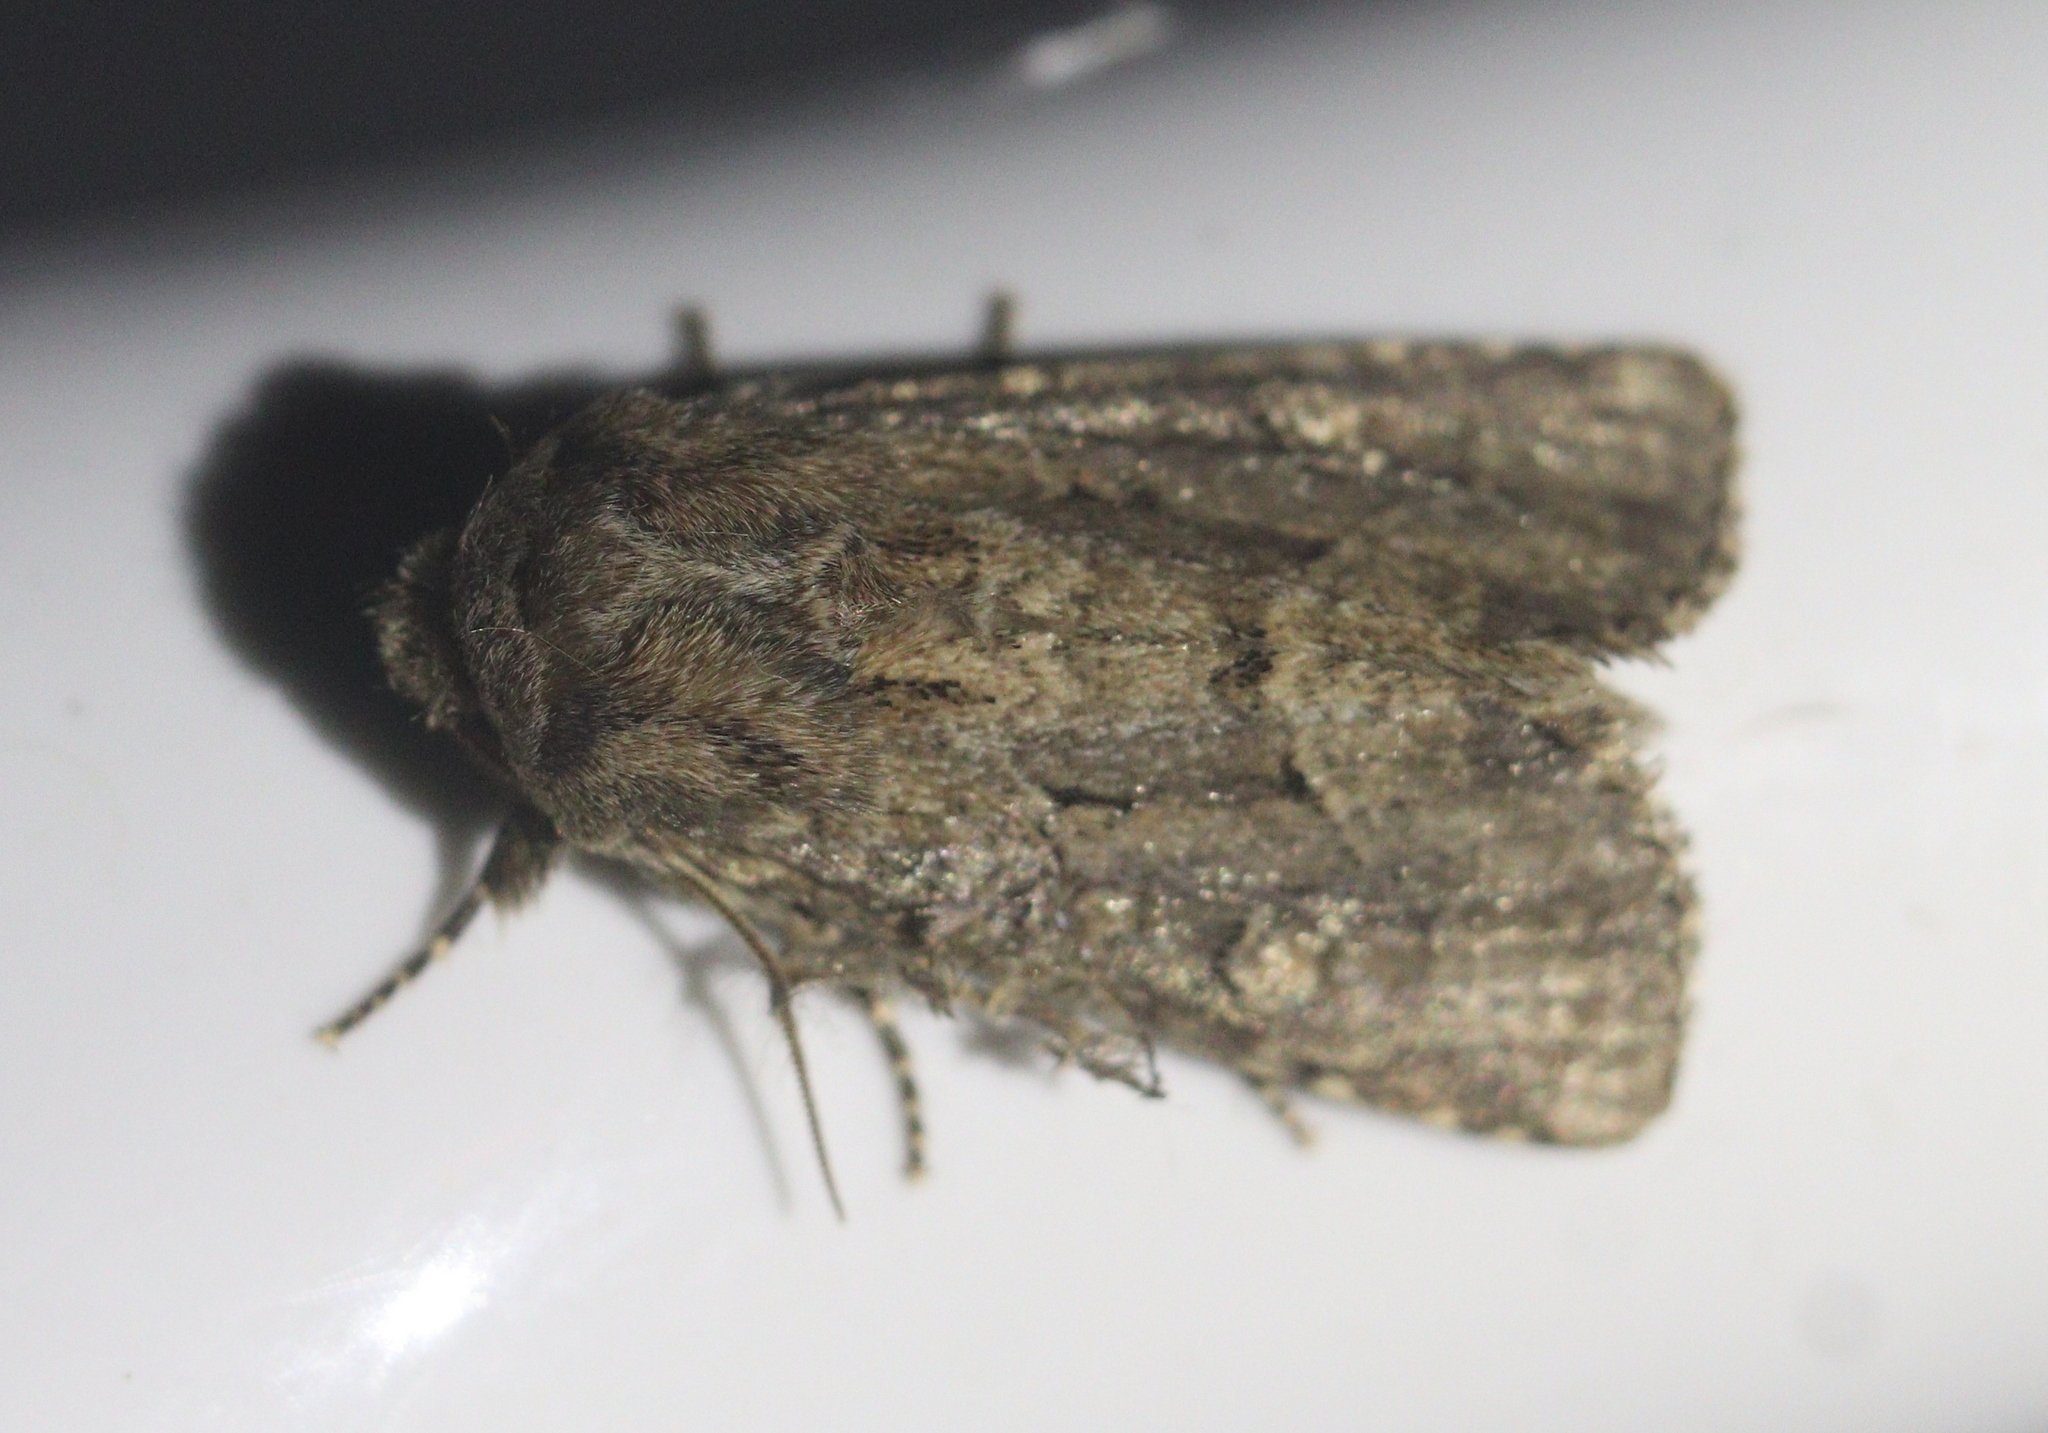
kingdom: Animalia
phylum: Arthropoda
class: Insecta
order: Lepidoptera
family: Noctuidae
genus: Luperina
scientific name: Luperina testacea
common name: Flounced rustic
